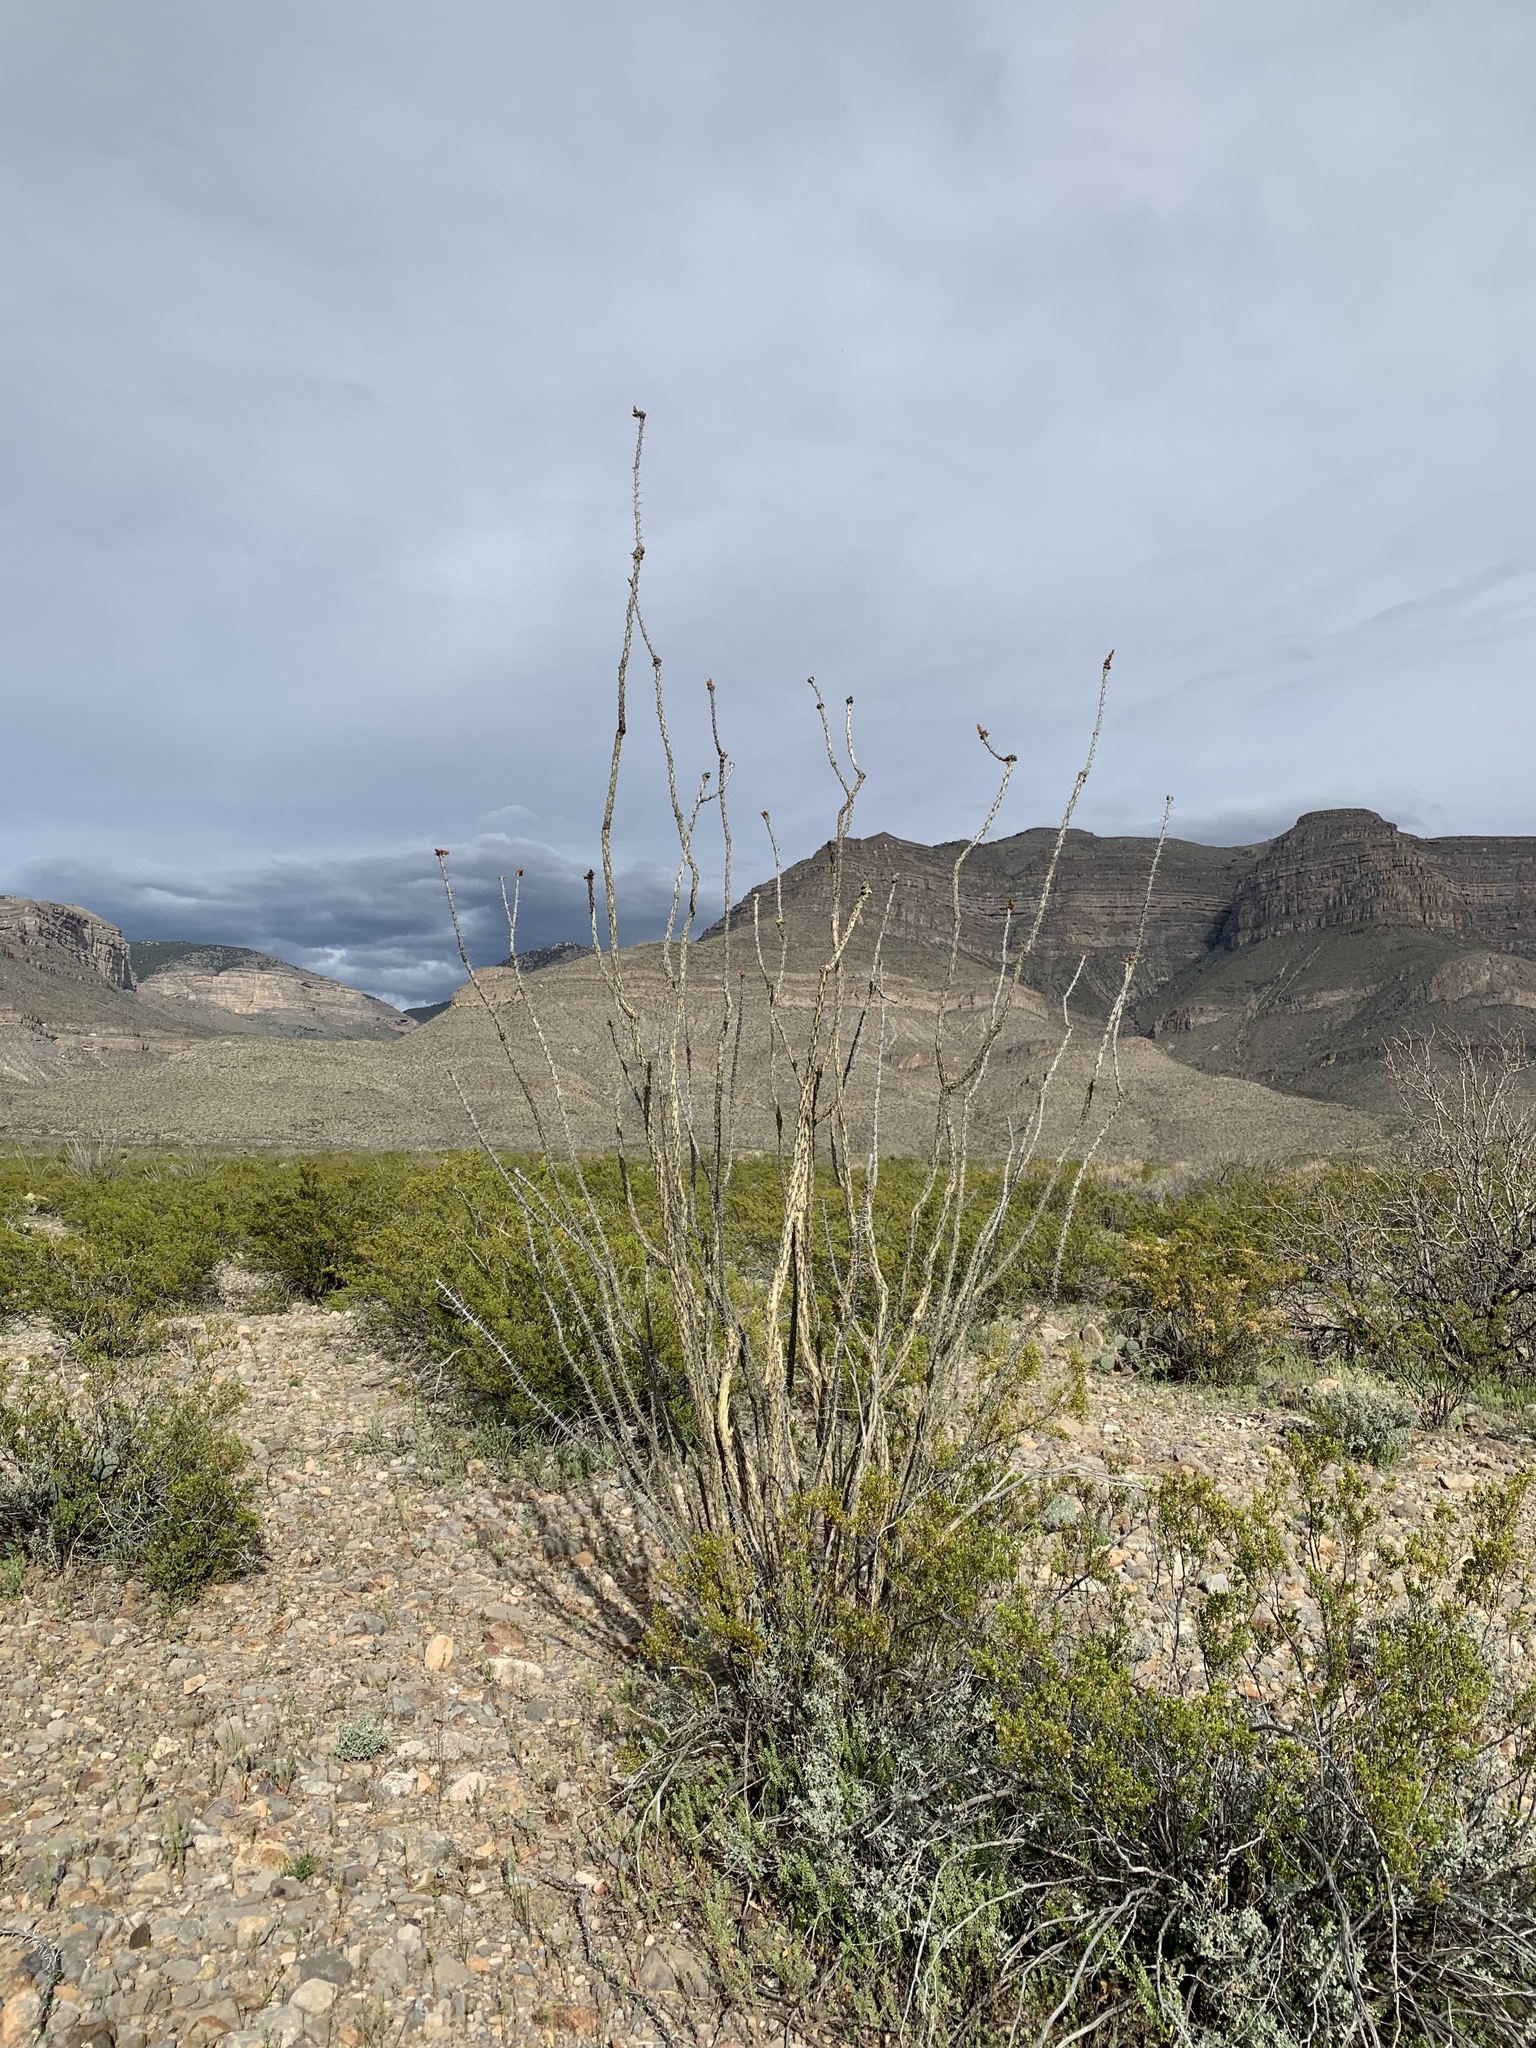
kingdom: Plantae
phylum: Tracheophyta
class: Magnoliopsida
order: Ericales
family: Fouquieriaceae
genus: Fouquieria
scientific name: Fouquieria splendens
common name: Vine-cactus
